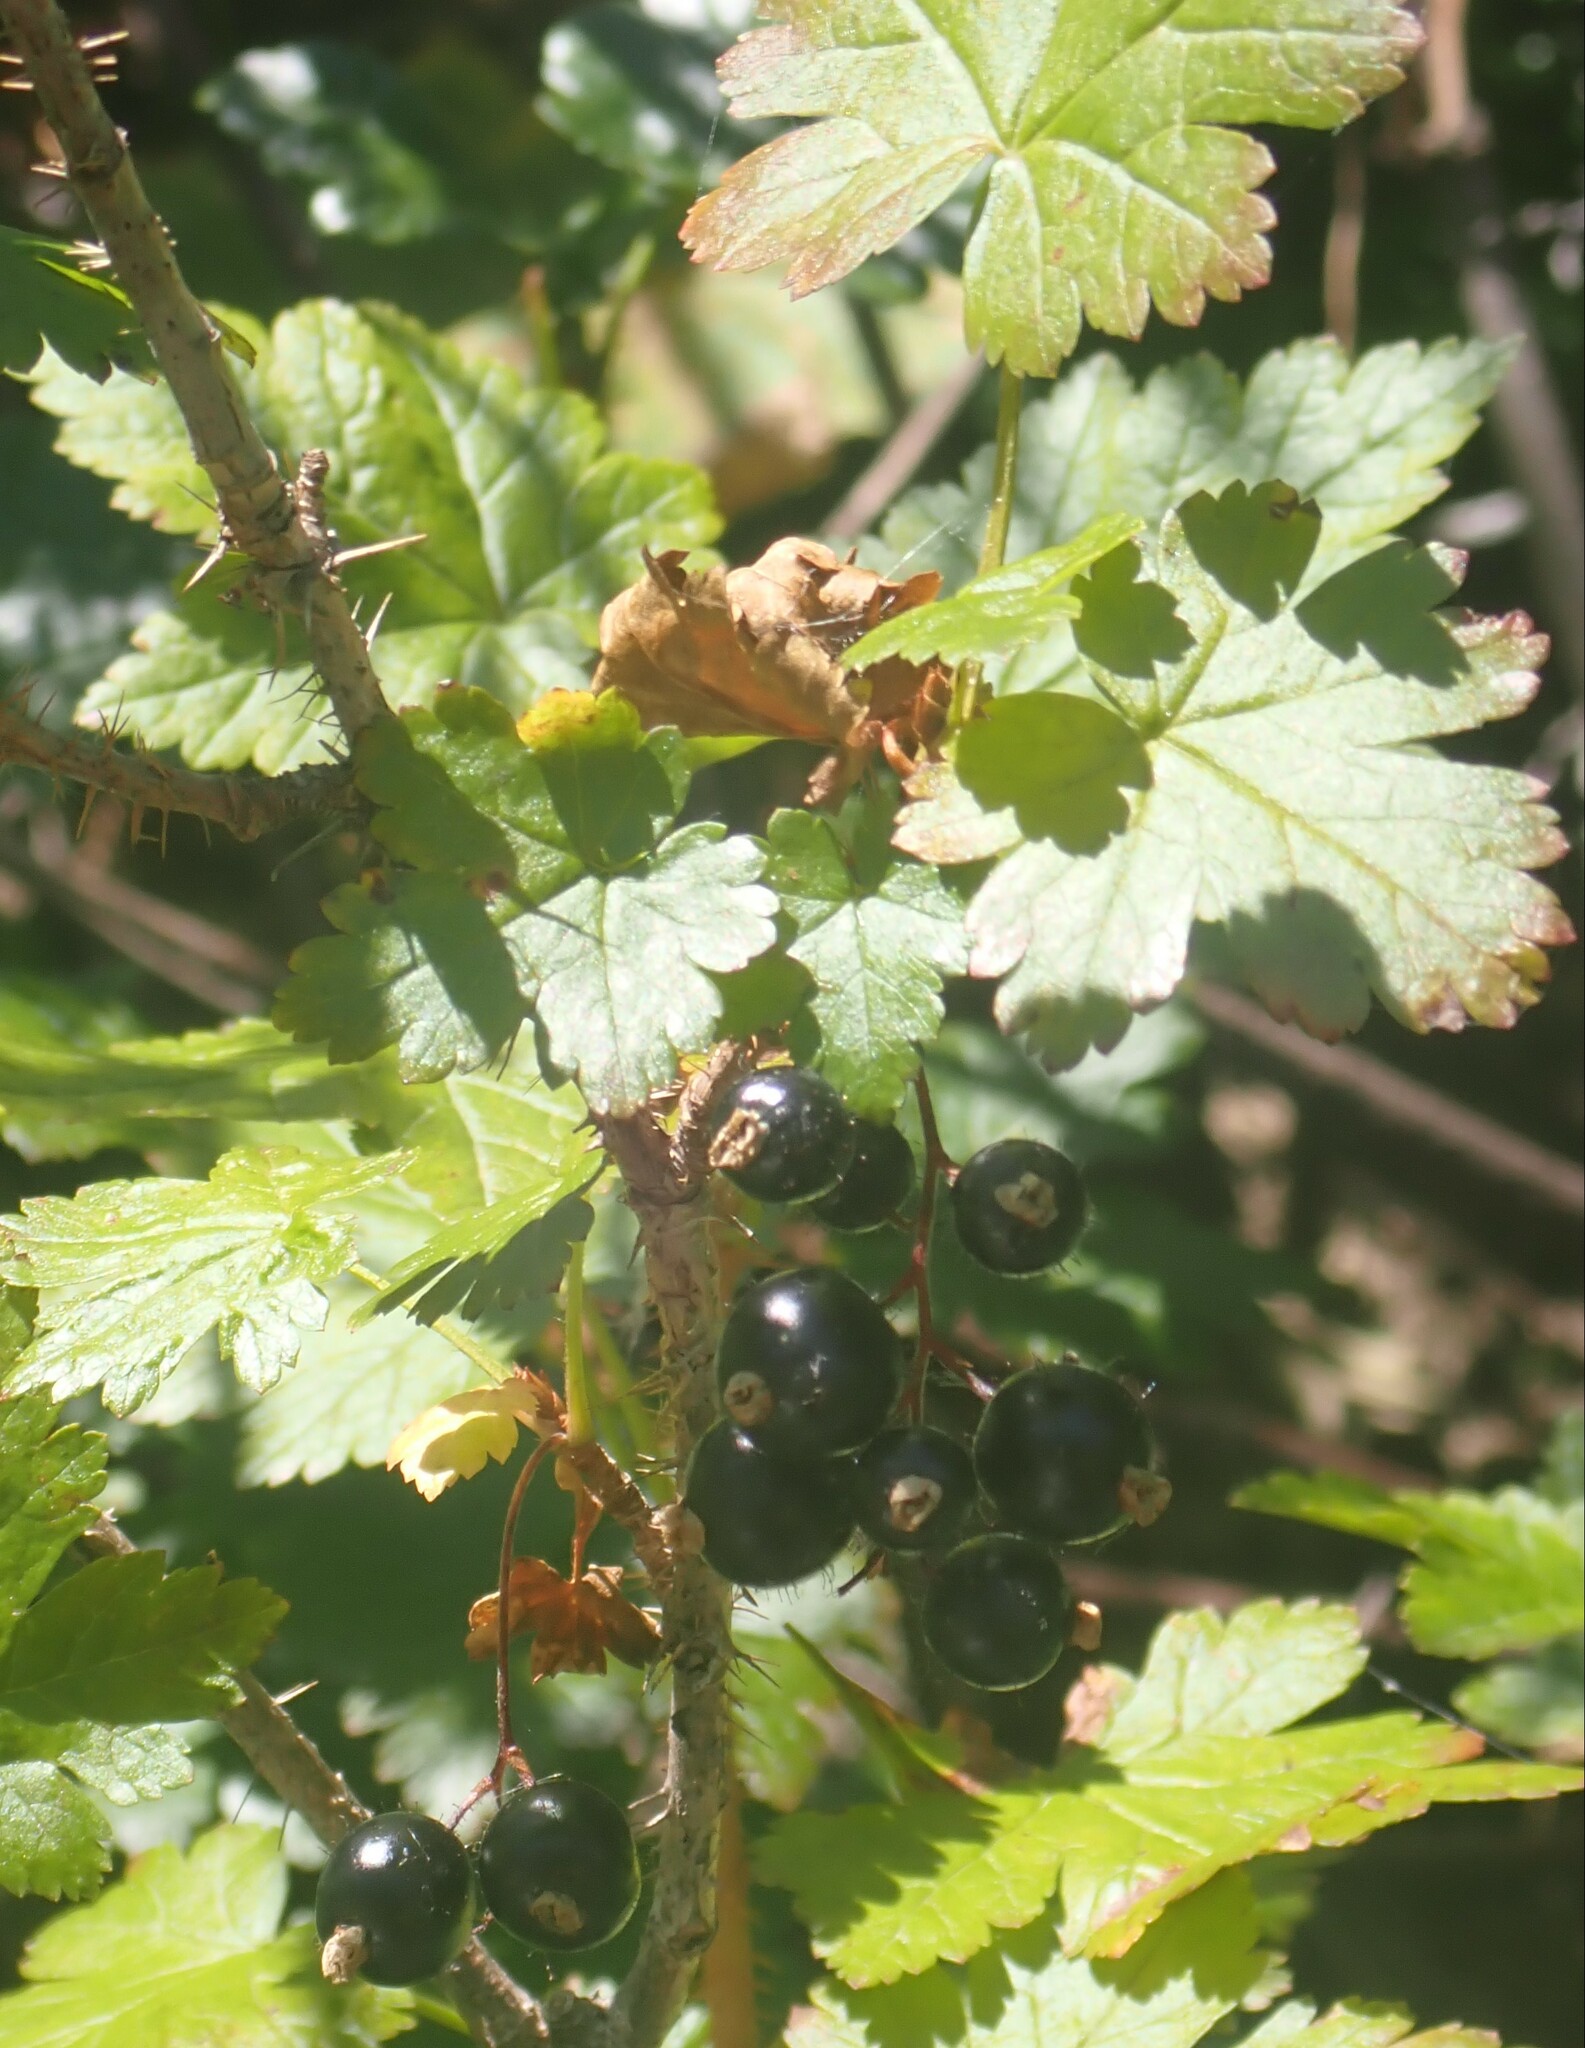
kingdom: Plantae
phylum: Tracheophyta
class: Magnoliopsida
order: Saxifragales
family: Grossulariaceae
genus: Ribes
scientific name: Ribes lacustre
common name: Black gooseberry
